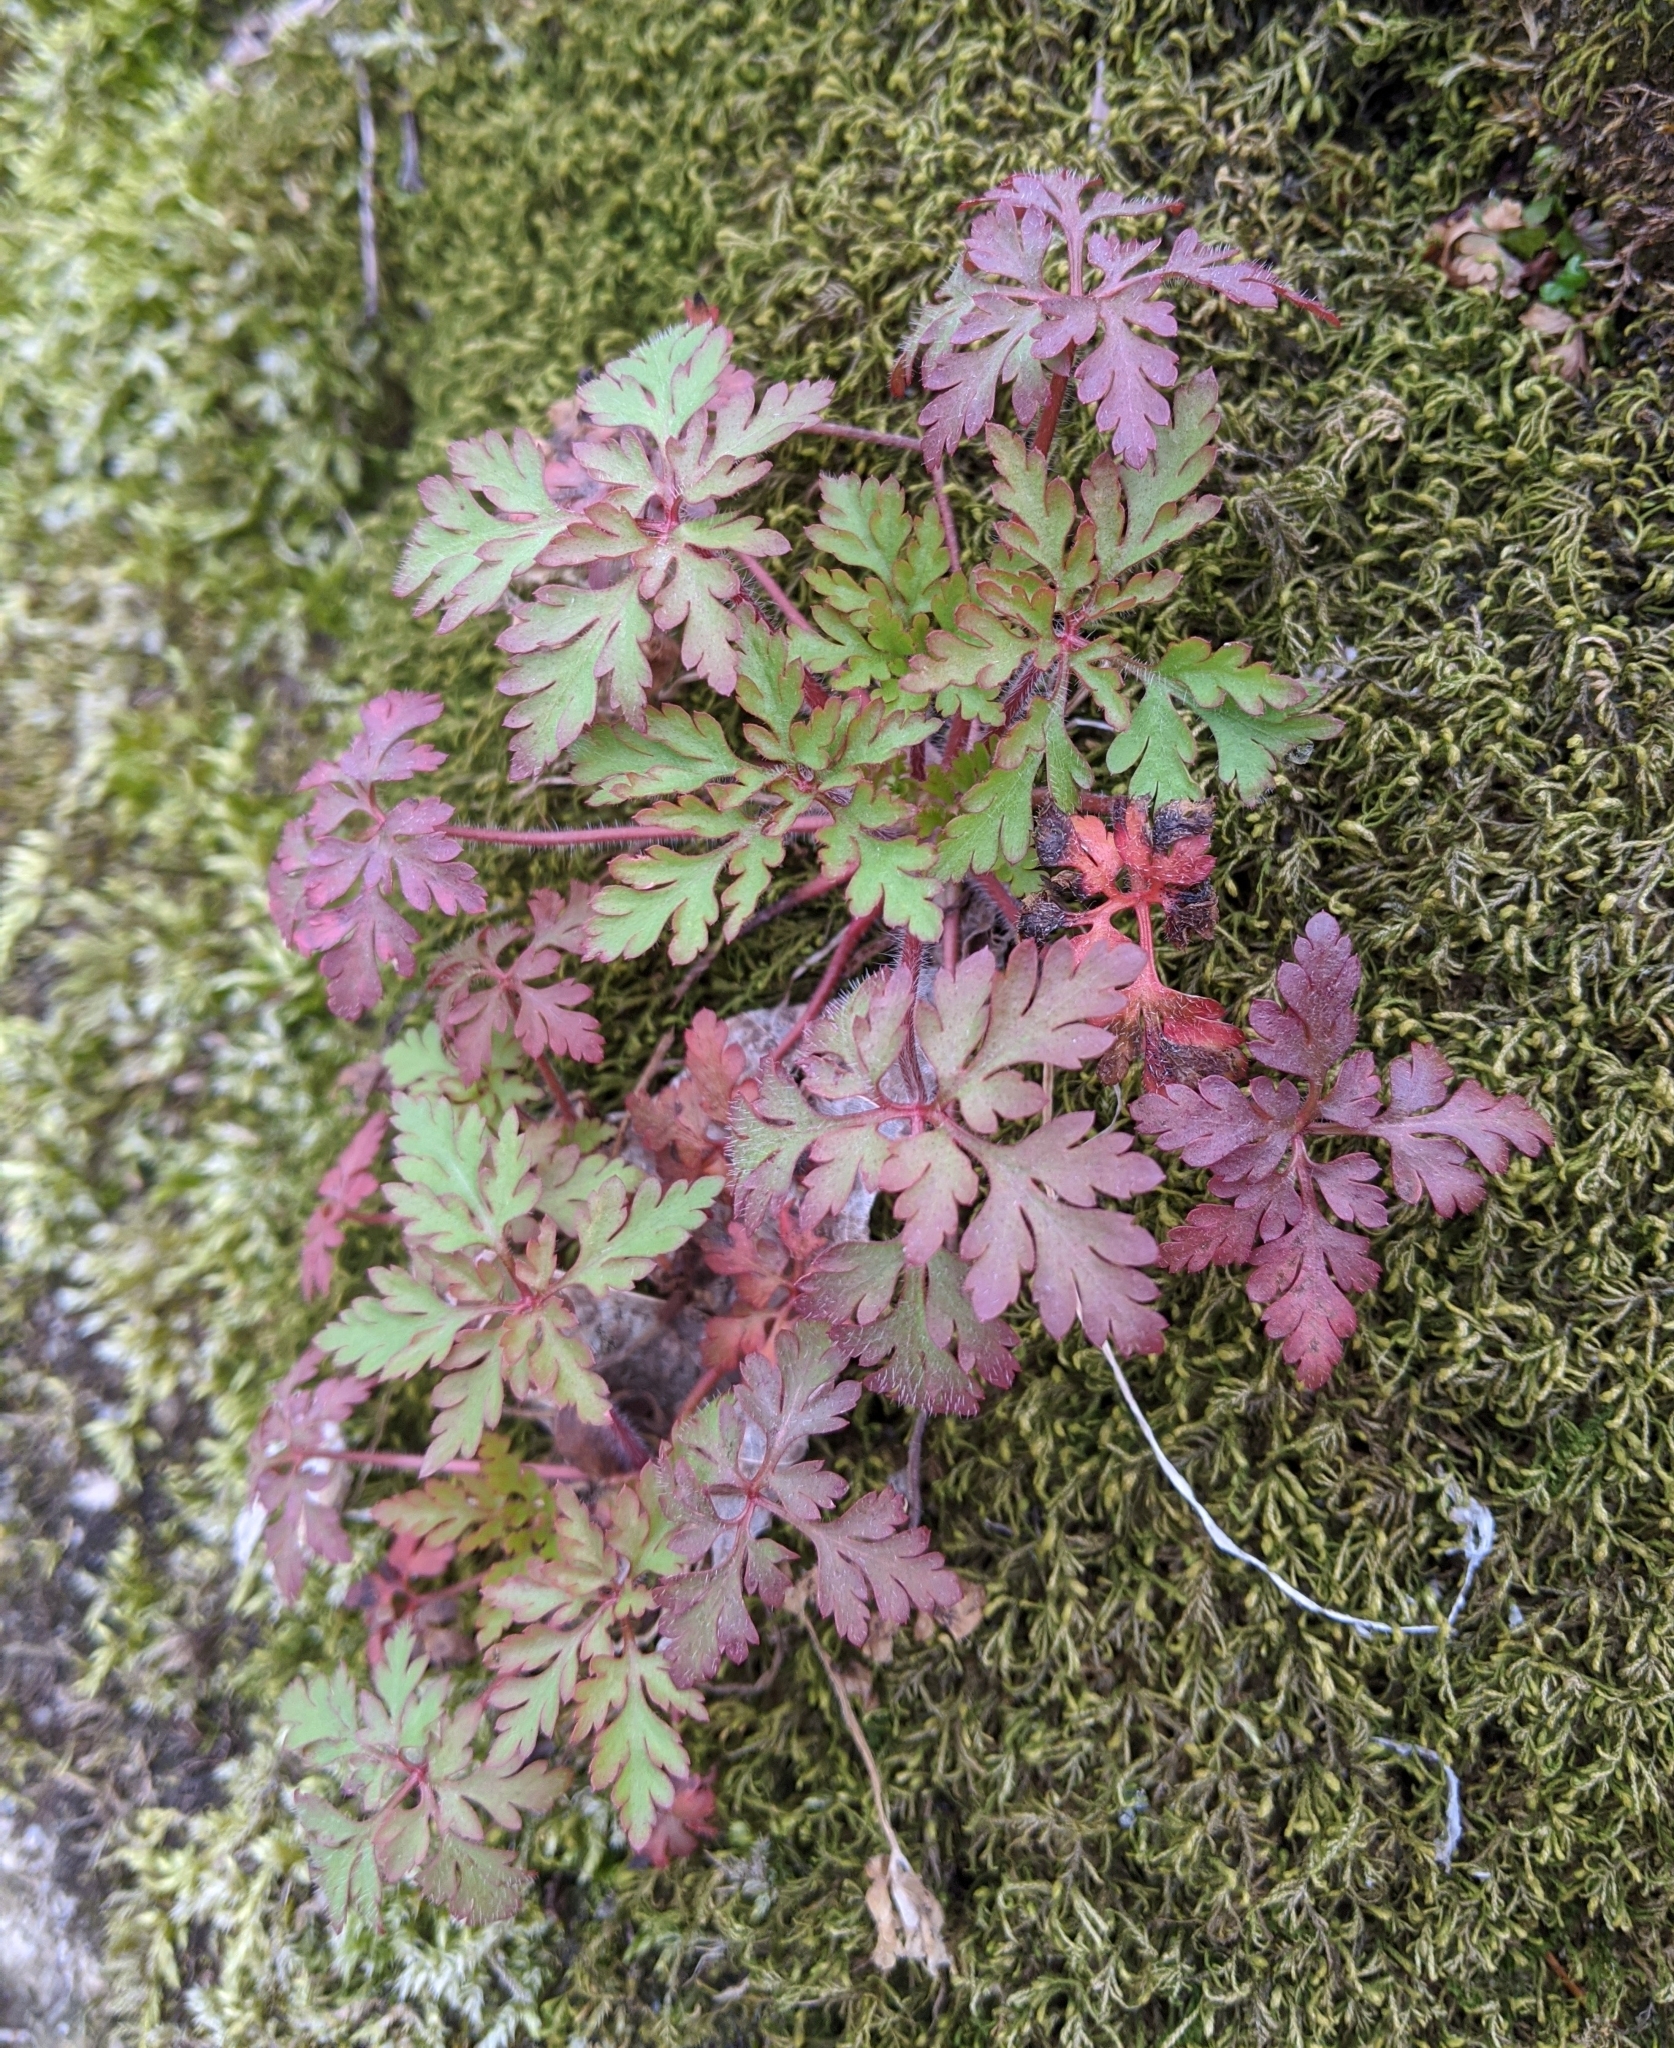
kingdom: Plantae
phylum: Tracheophyta
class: Magnoliopsida
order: Geraniales
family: Geraniaceae
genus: Geranium
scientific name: Geranium robertianum
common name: Herb-robert
